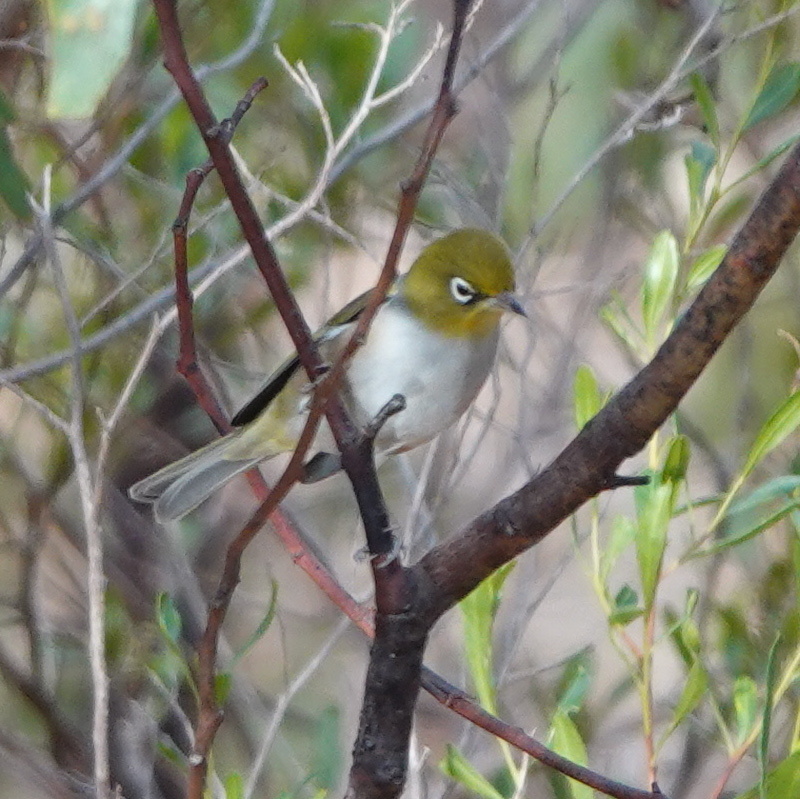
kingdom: Animalia
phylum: Chordata
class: Aves
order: Passeriformes
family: Zosteropidae
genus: Zosterops
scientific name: Zosterops lateralis
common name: Silvereye
